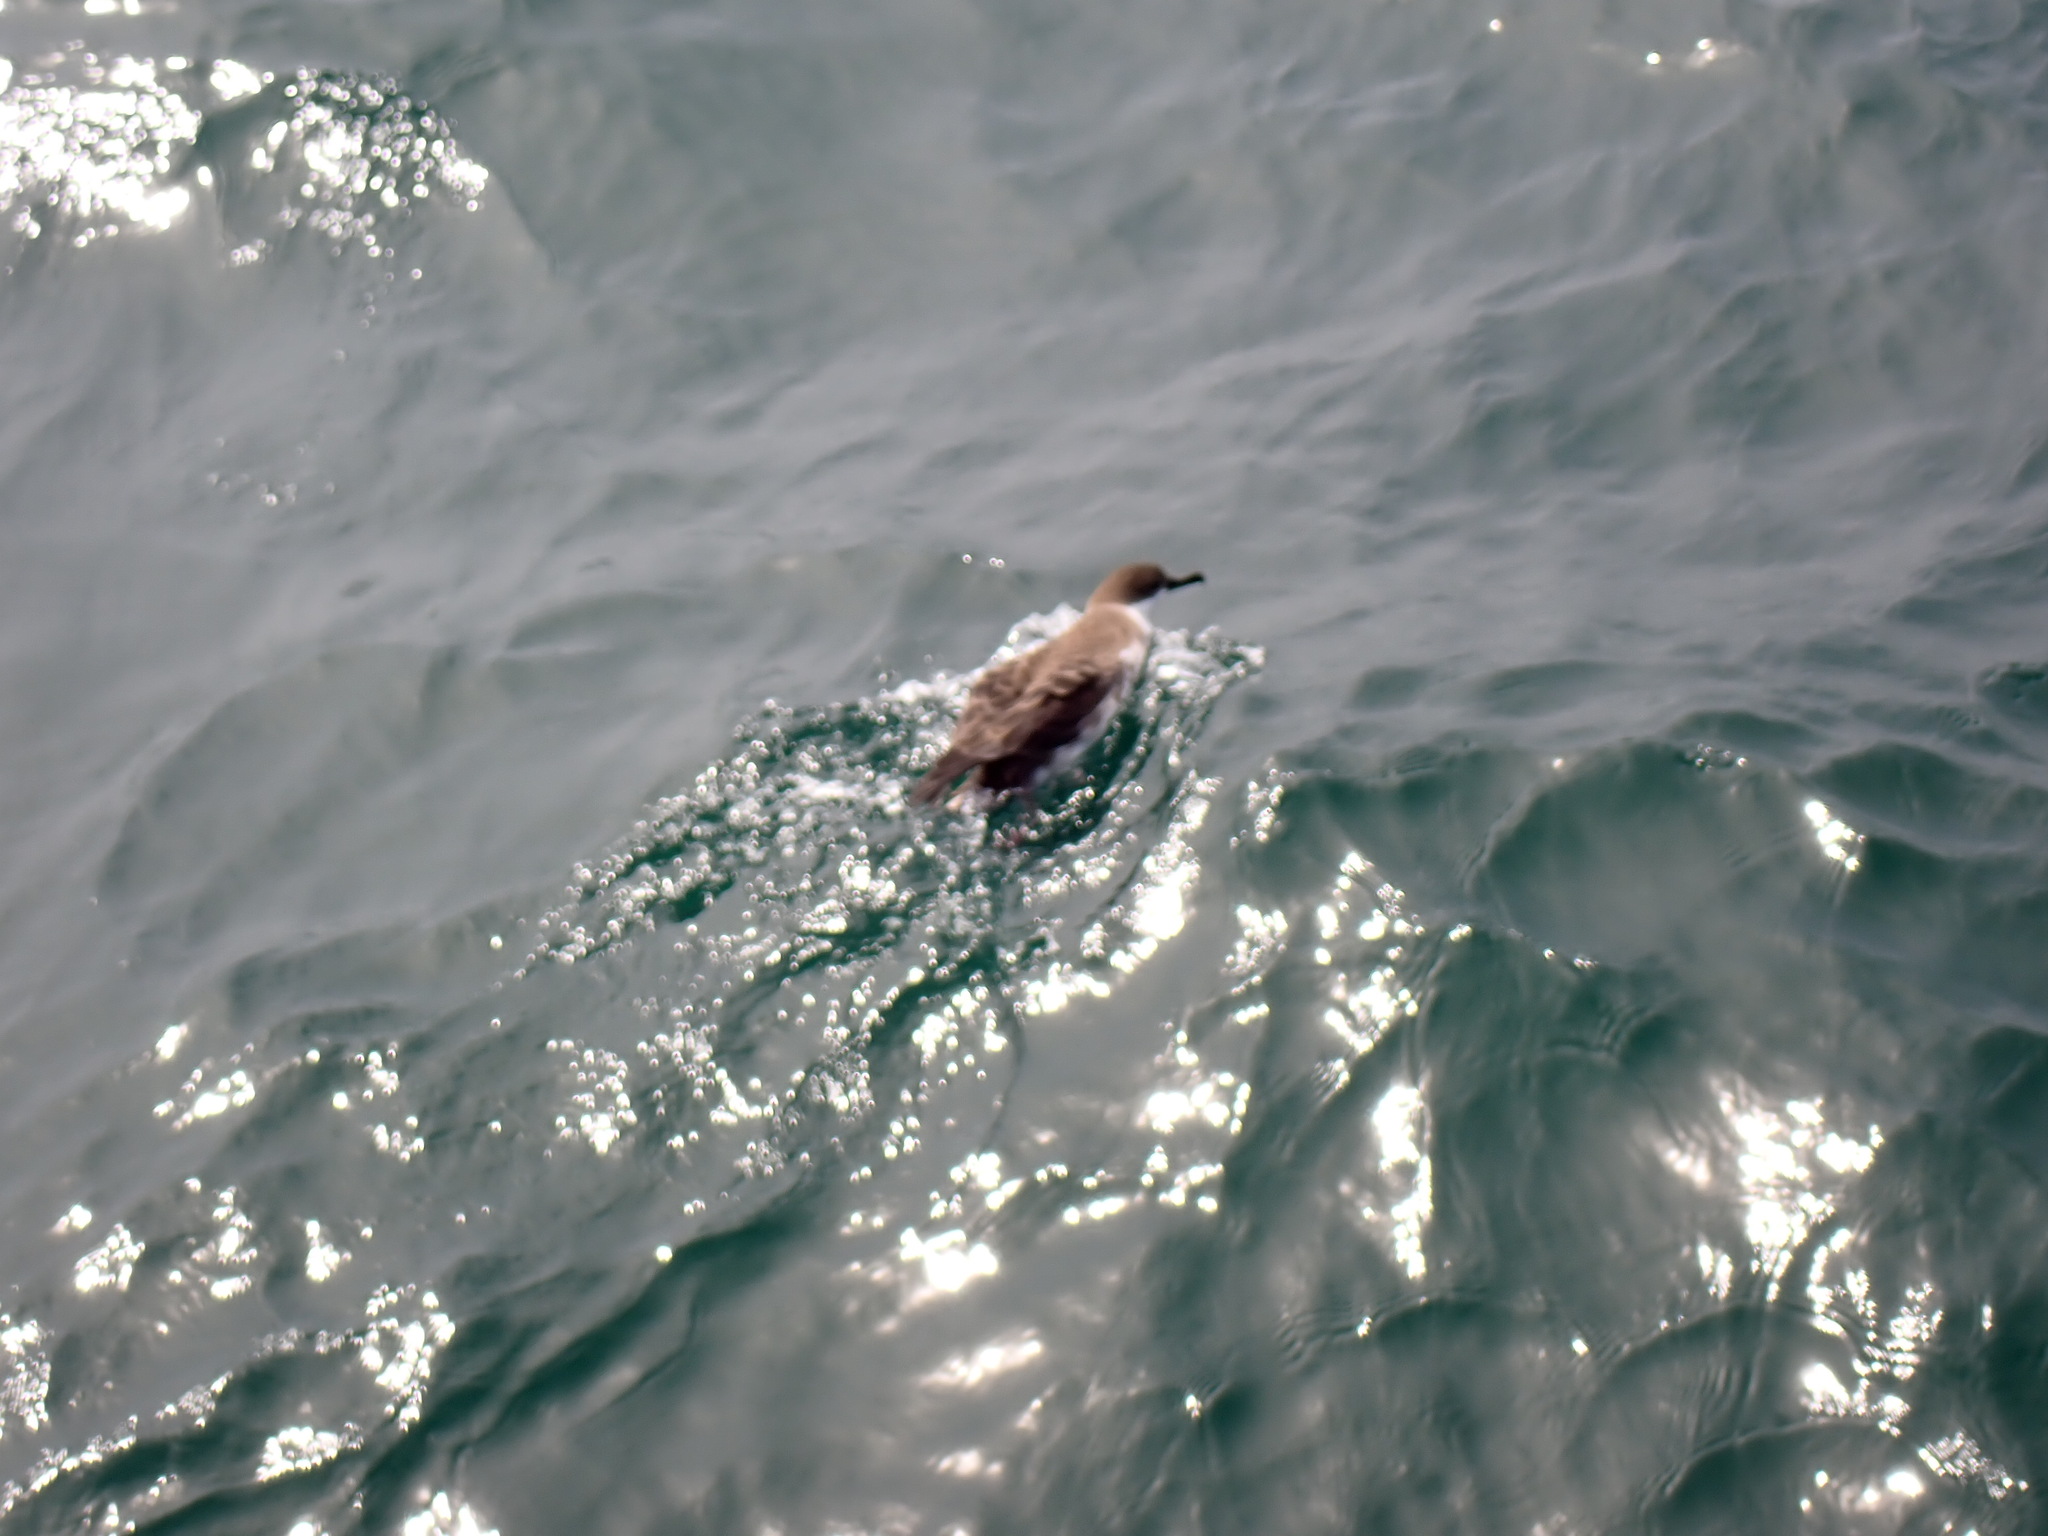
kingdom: Animalia
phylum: Chordata
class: Aves
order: Procellariiformes
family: Procellariidae
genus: Puffinus
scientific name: Puffinus gravis
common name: Great shearwater
